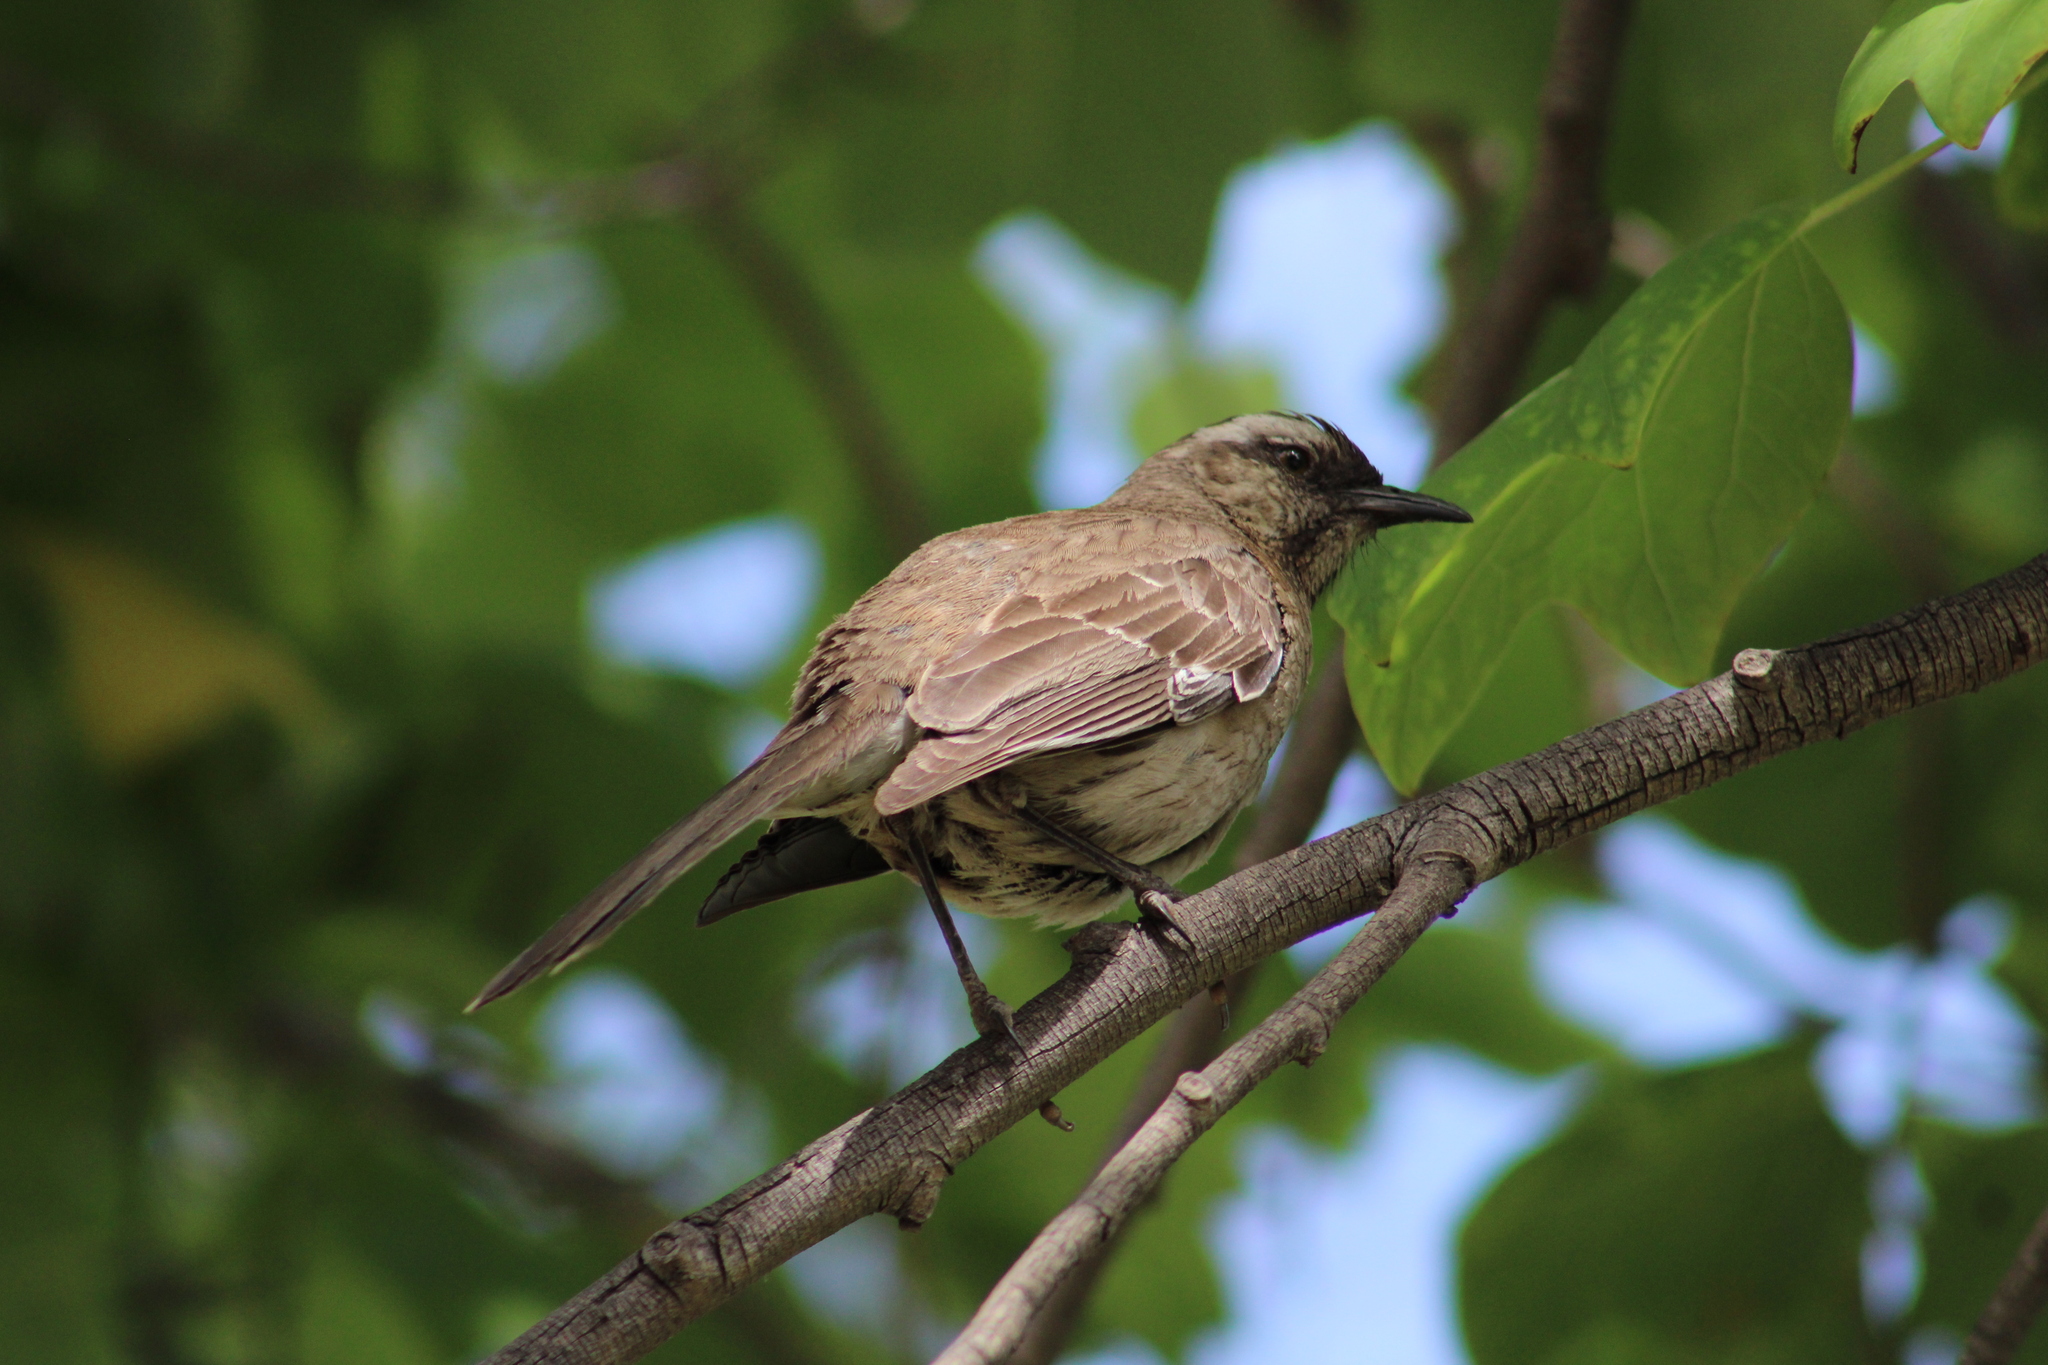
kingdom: Animalia
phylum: Chordata
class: Aves
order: Passeriformes
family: Mimidae
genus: Mimus
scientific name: Mimus thenca
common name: Chilean mockingbird
